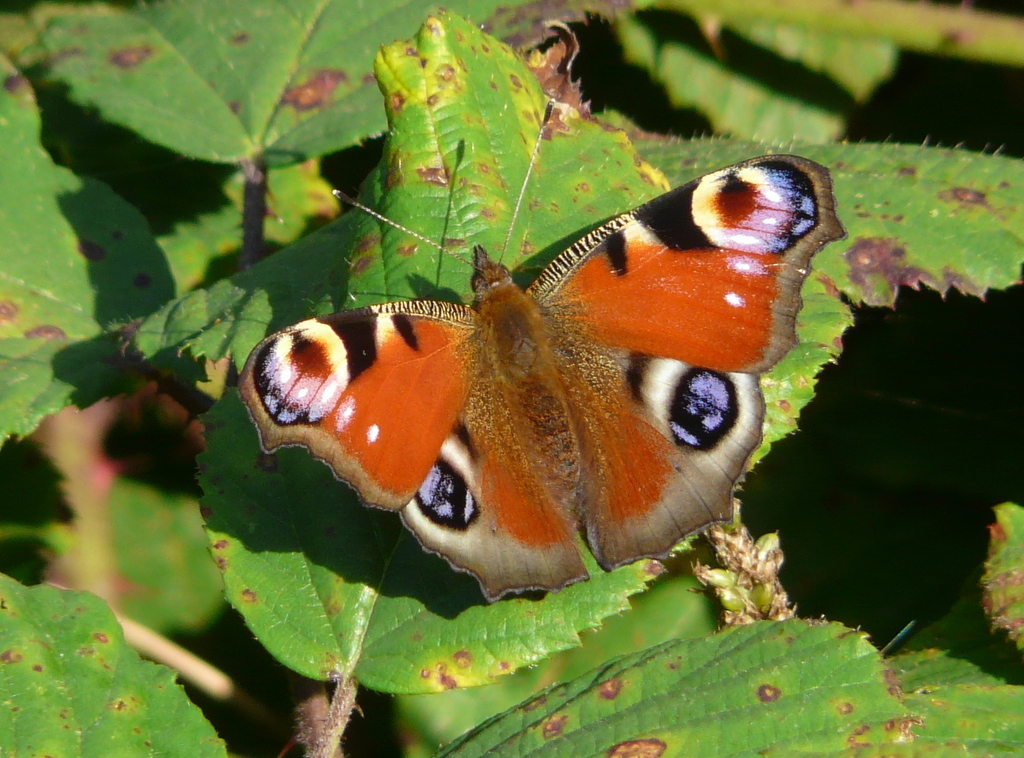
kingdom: Animalia
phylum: Arthropoda
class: Insecta
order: Lepidoptera
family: Nymphalidae
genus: Aglais
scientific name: Aglais io
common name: Peacock
